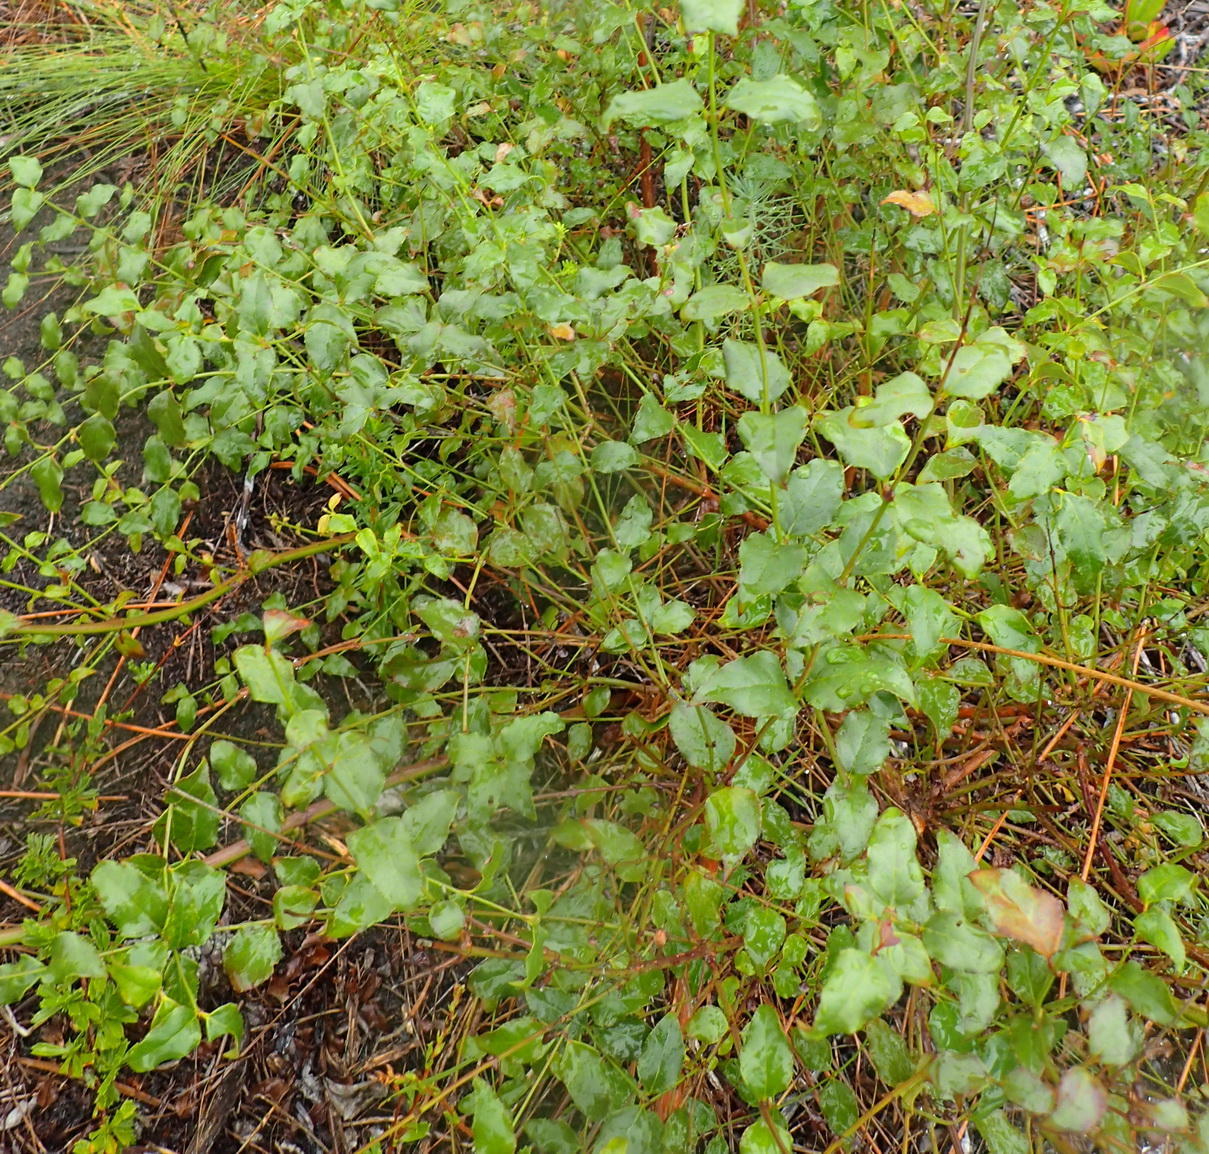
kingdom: Plantae
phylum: Tracheophyta
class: Magnoliopsida
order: Lamiales
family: Stilbaceae
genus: Halleria
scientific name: Halleria lucida
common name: Tree fuschia
